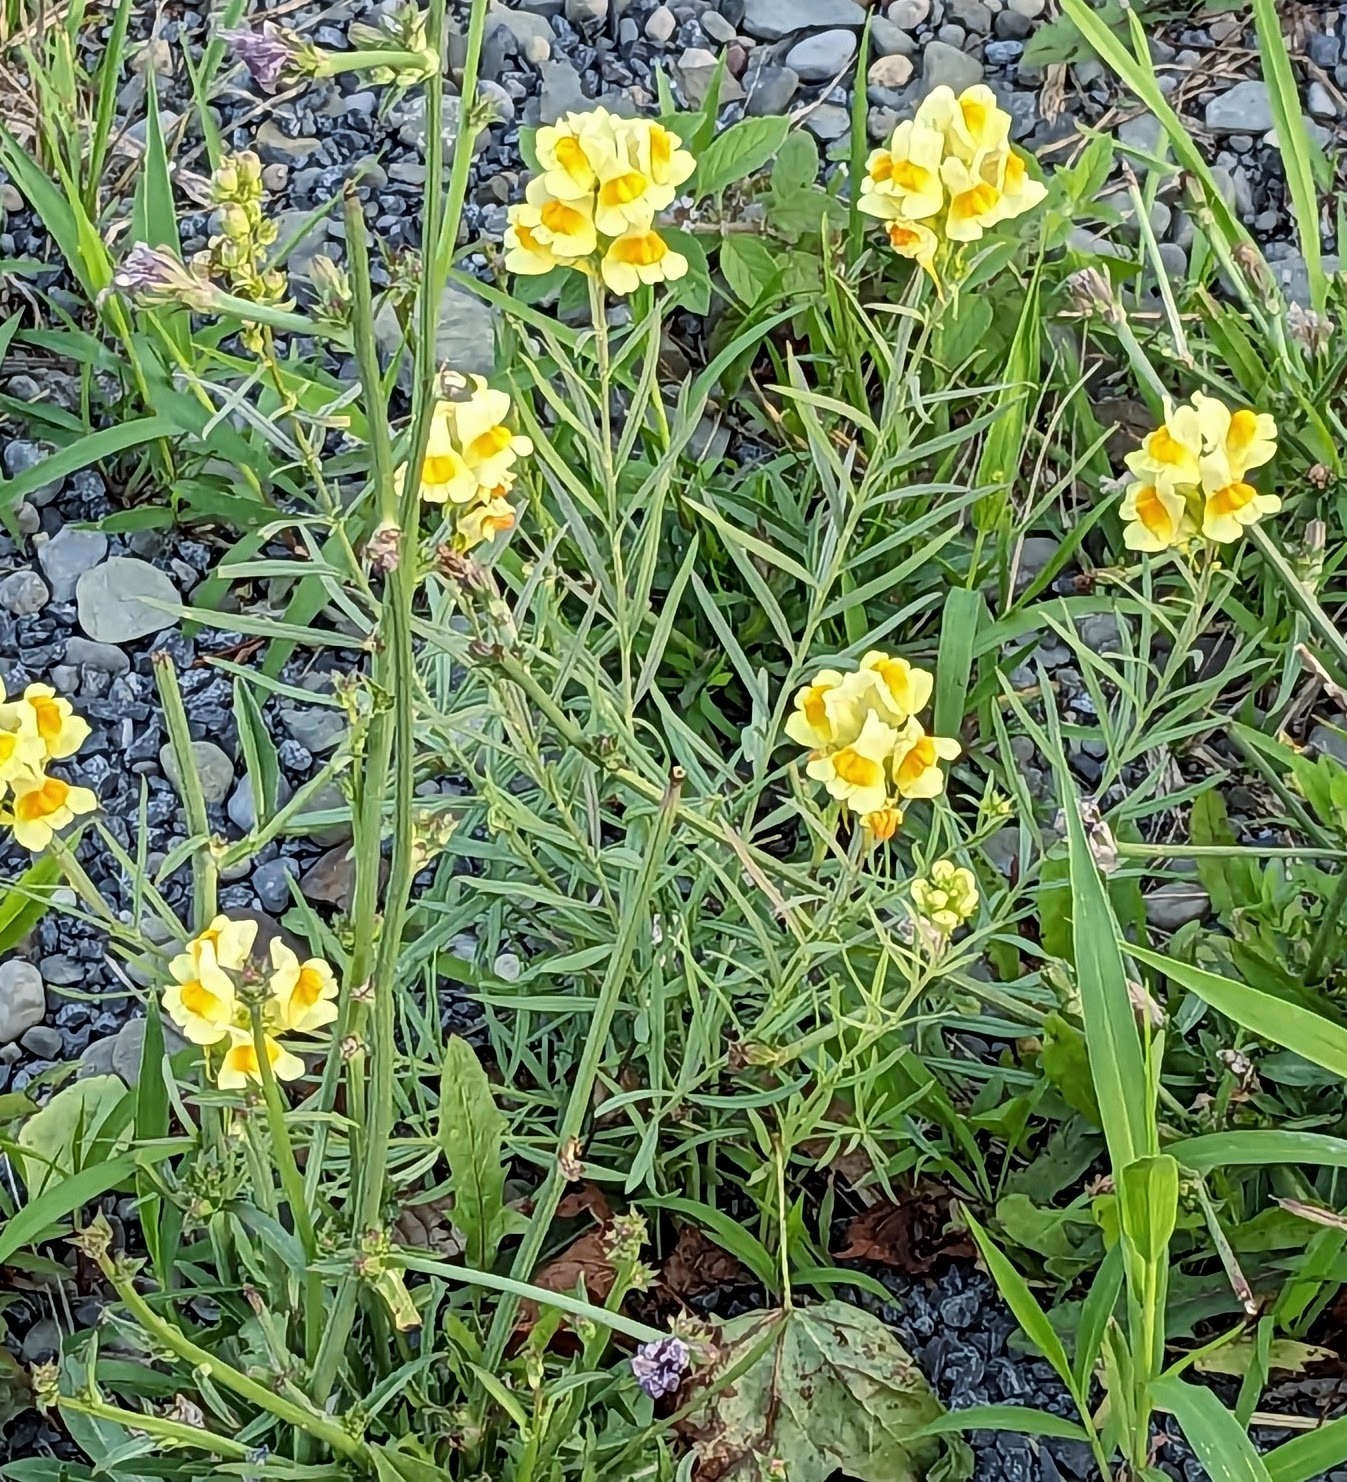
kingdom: Plantae
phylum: Tracheophyta
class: Magnoliopsida
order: Lamiales
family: Plantaginaceae
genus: Linaria
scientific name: Linaria vulgaris
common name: Butter and eggs
